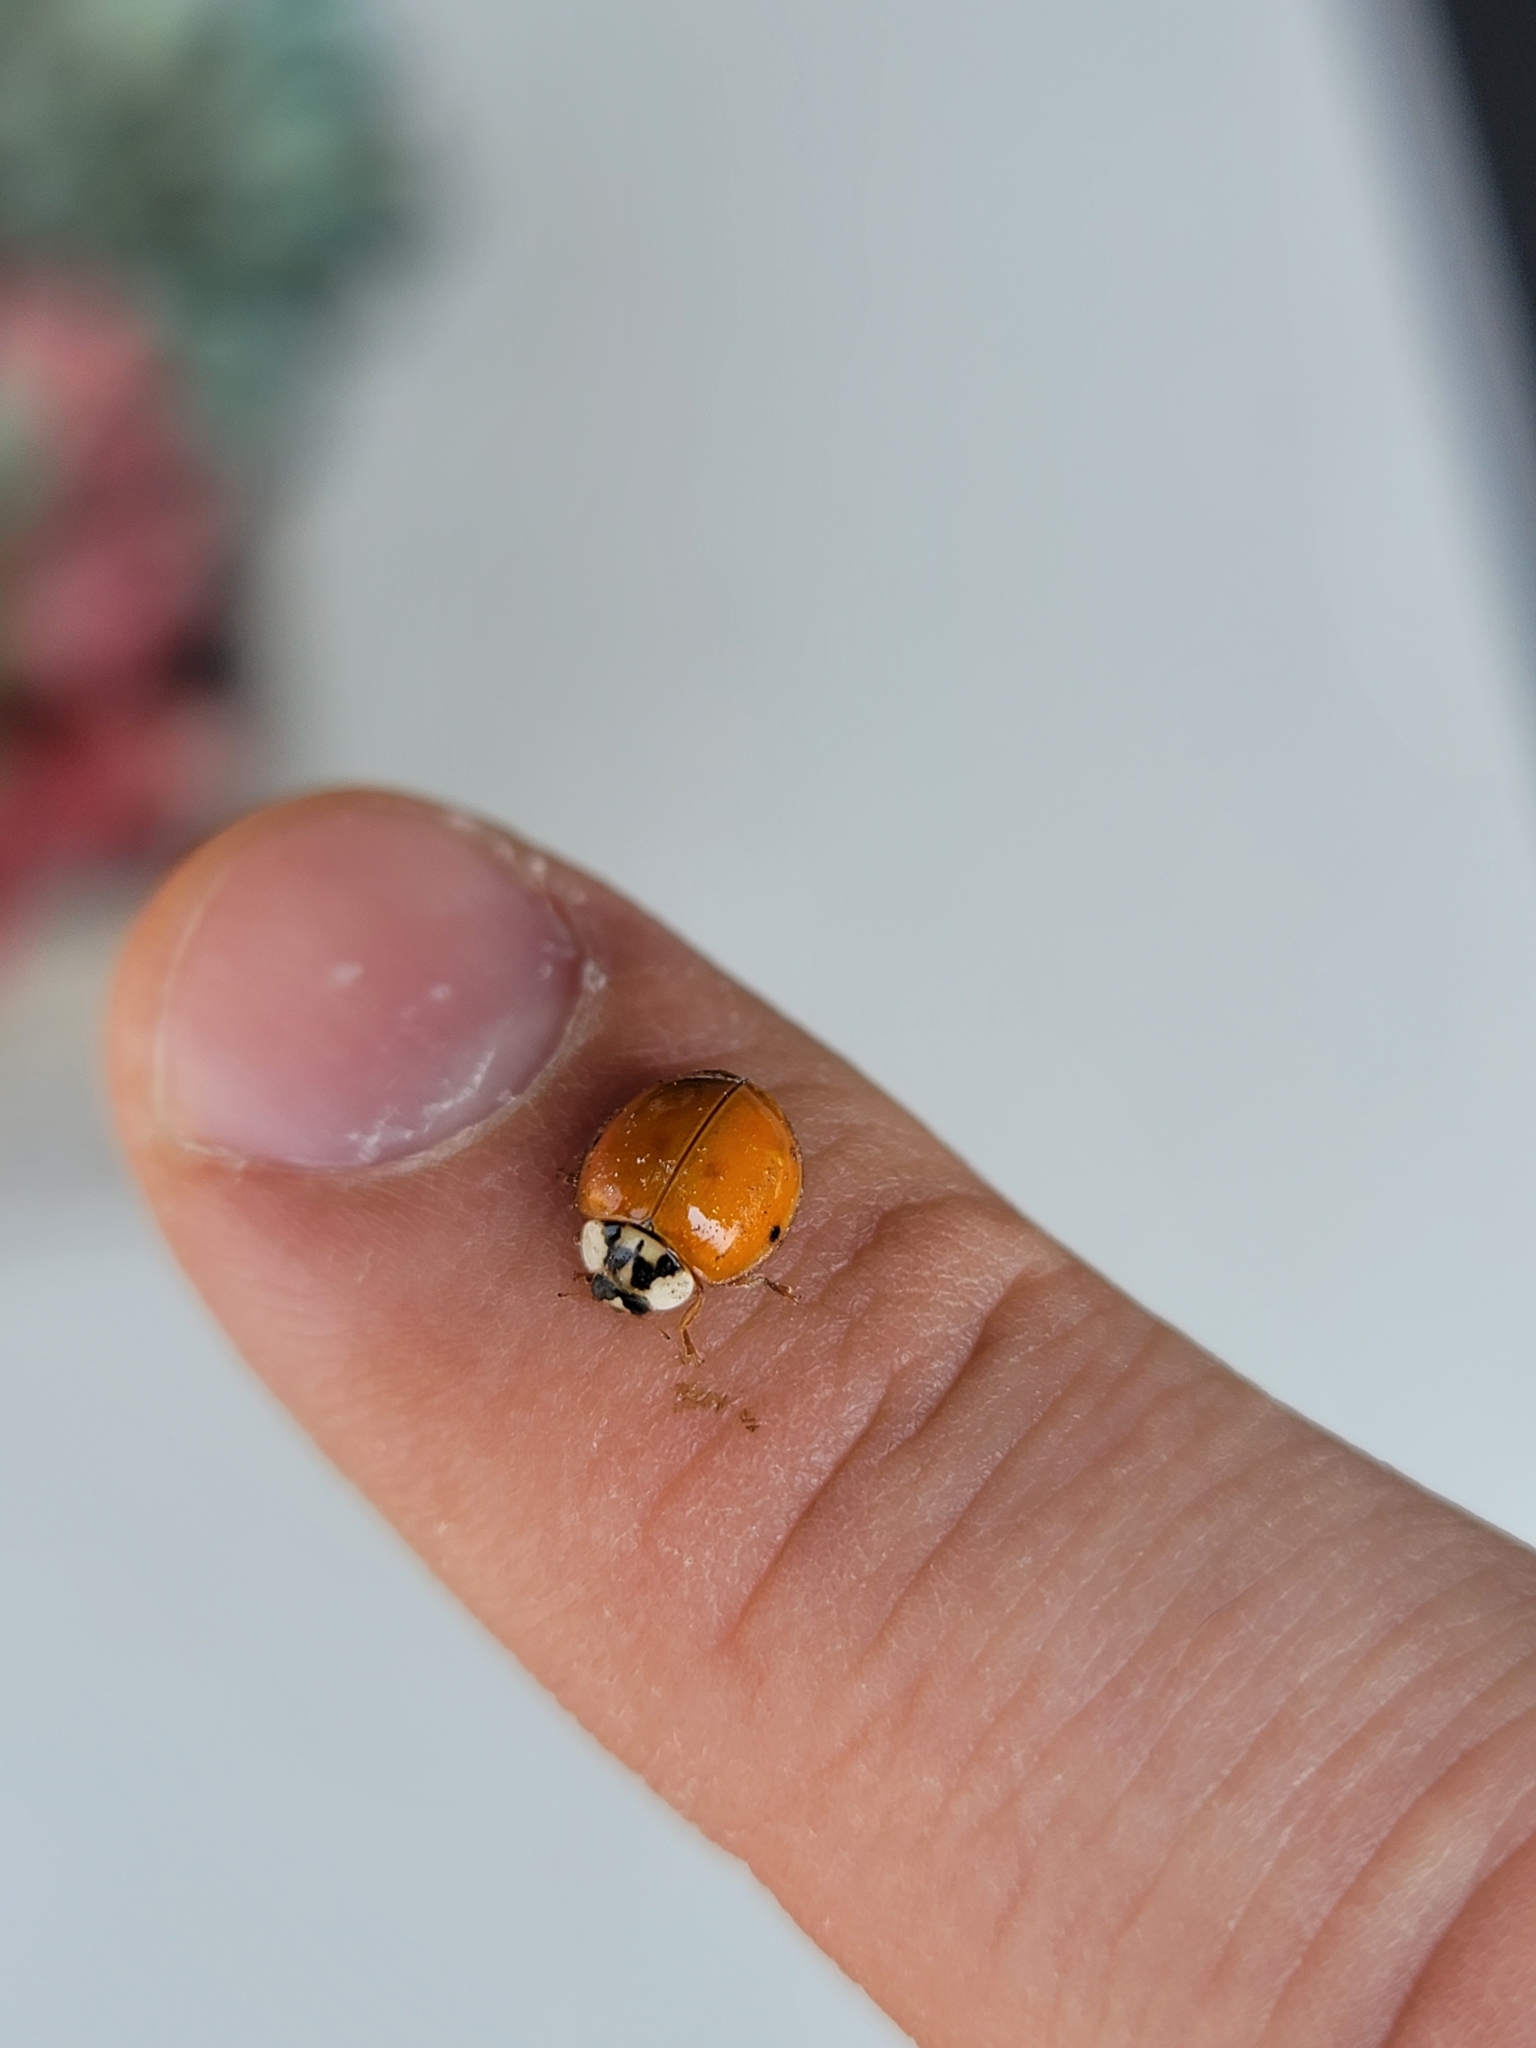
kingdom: Animalia
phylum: Arthropoda
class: Insecta
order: Coleoptera
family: Coccinellidae
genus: Harmonia
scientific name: Harmonia axyridis
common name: Harlequin ladybird
